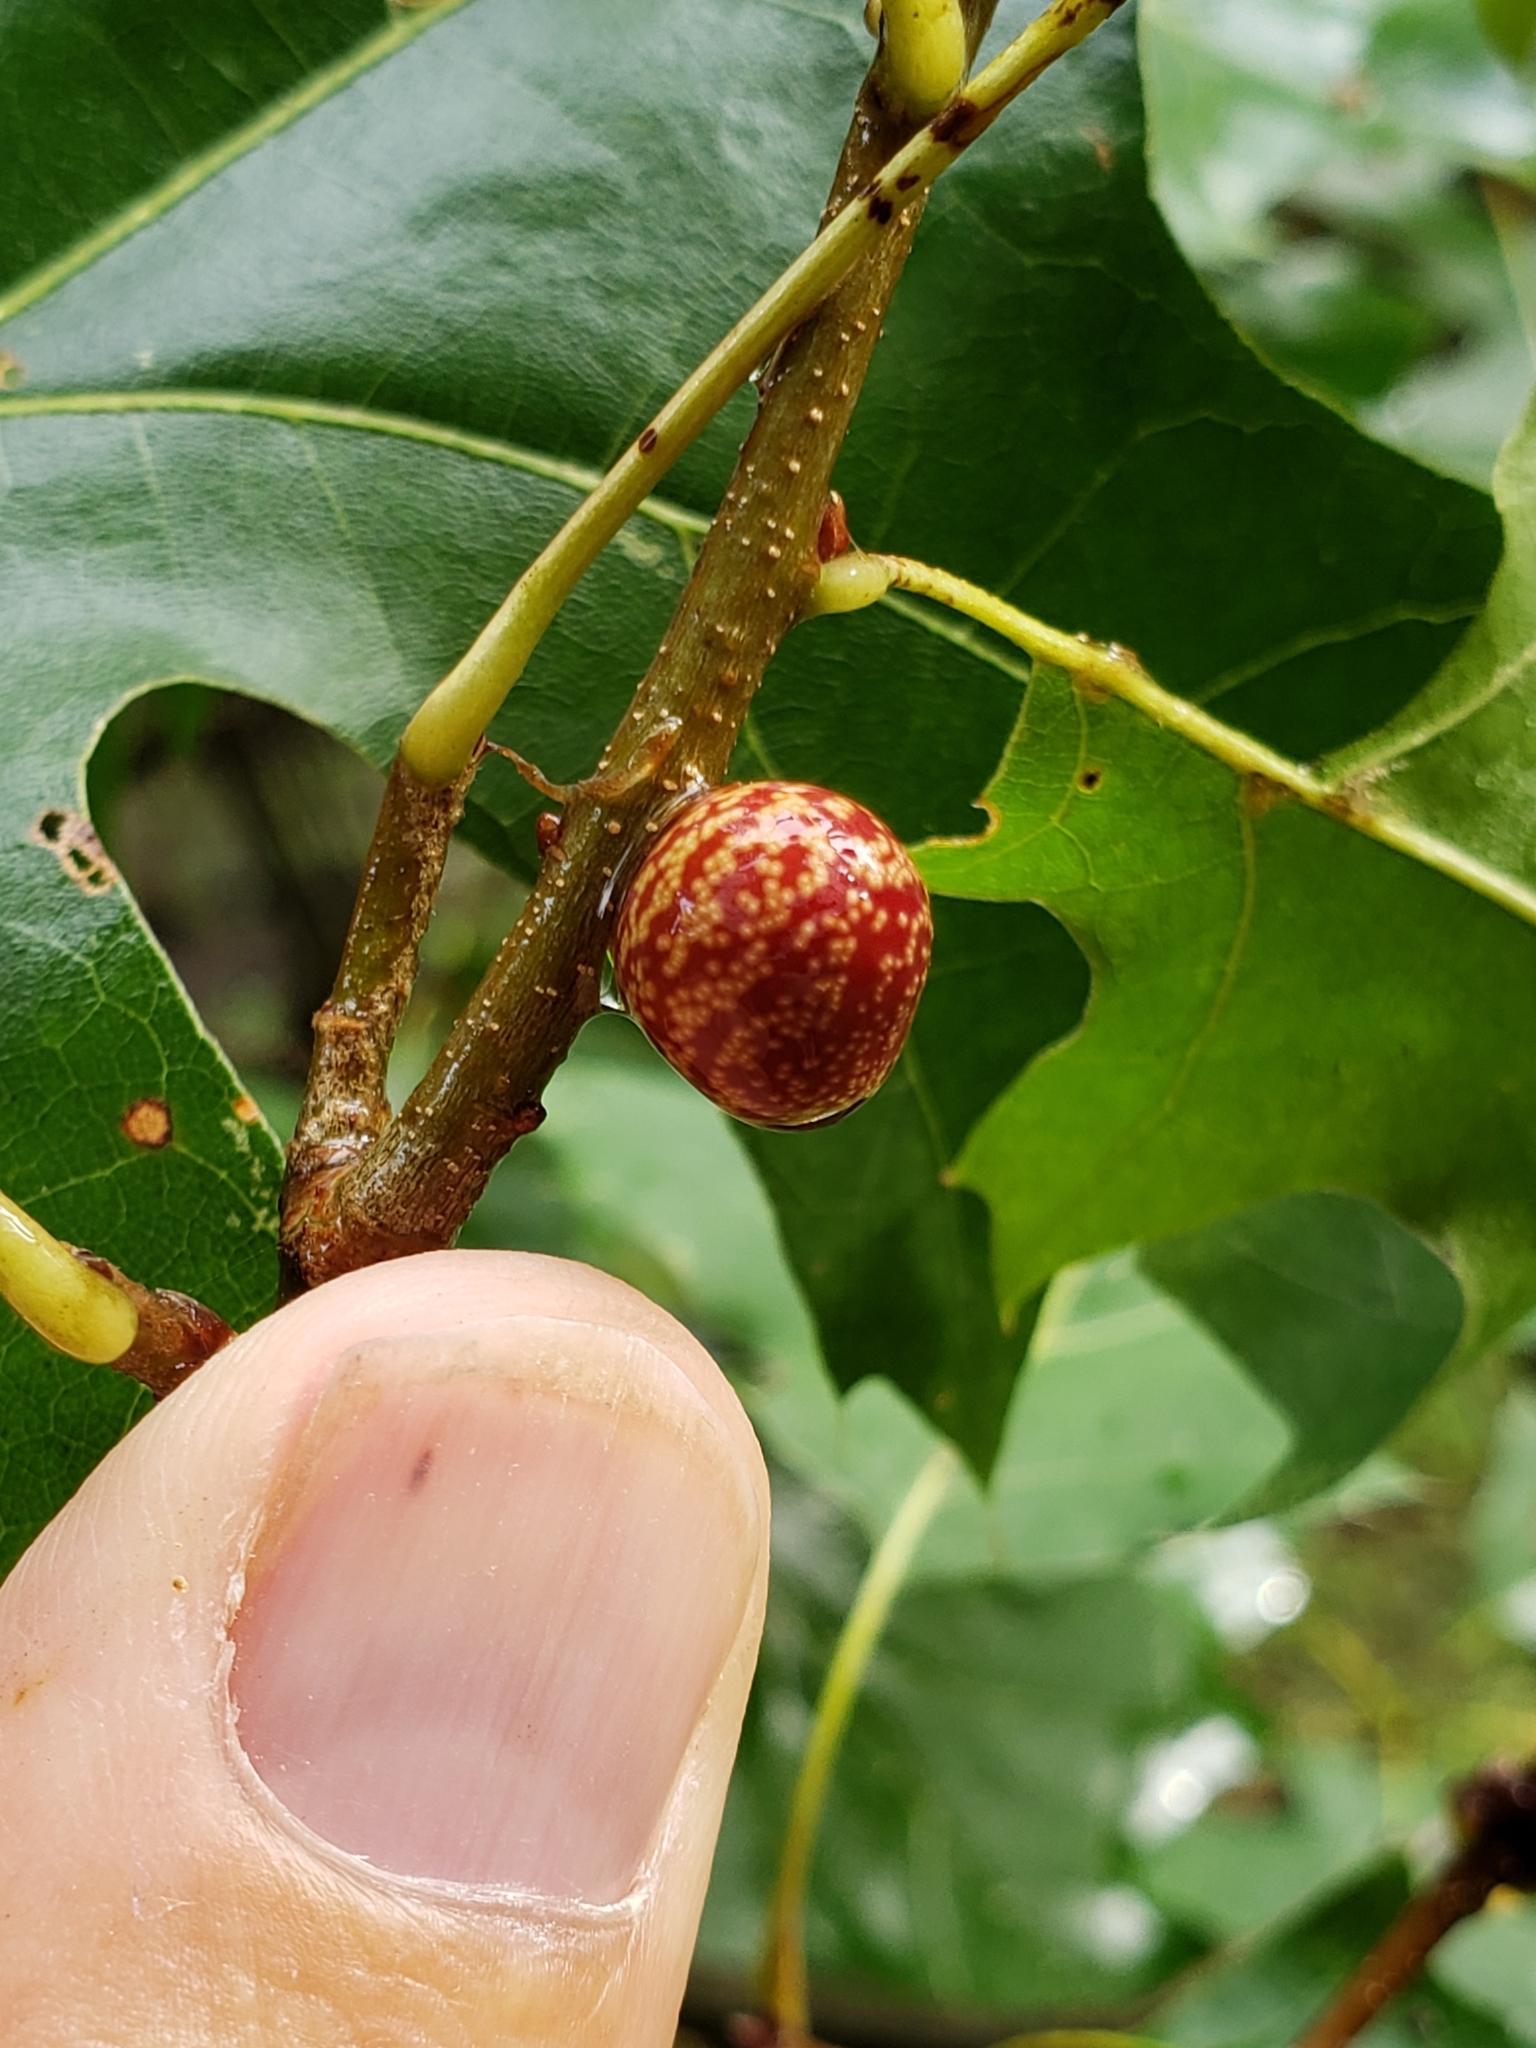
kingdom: Animalia
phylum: Arthropoda
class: Insecta
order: Hymenoptera
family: Cynipidae
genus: Kokkocynips
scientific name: Kokkocynips imbricariae
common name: Banded bullet gall wasp
